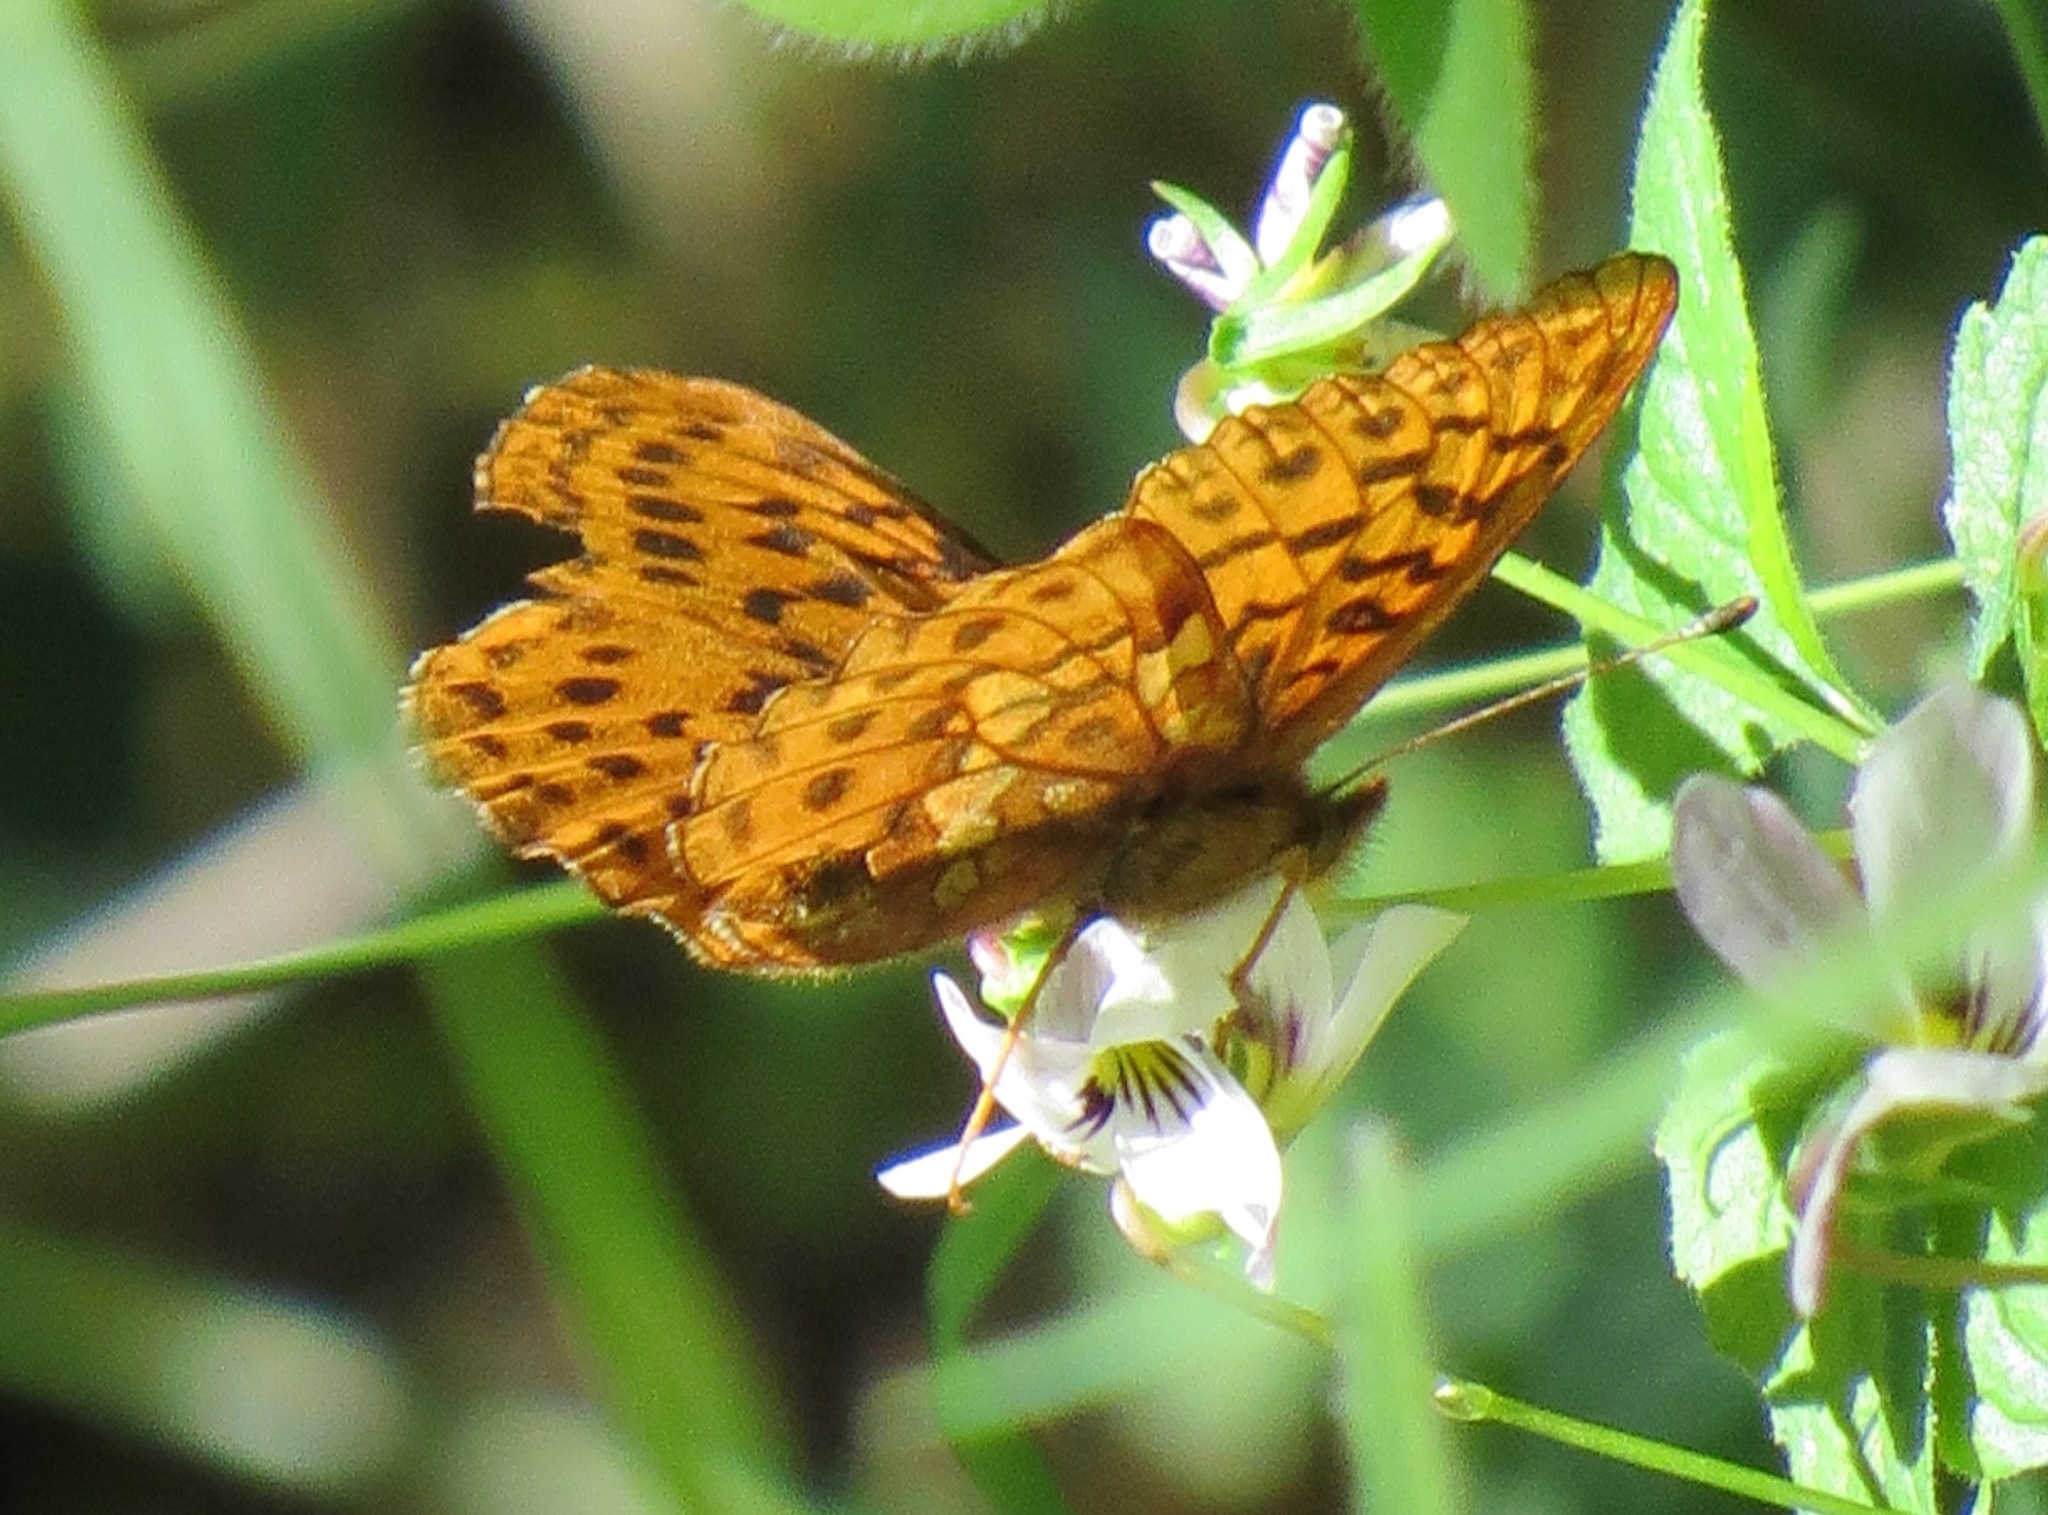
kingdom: Animalia
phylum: Arthropoda
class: Insecta
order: Lepidoptera
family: Nymphalidae
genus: Boloria
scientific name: Boloria epithore
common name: Pacific fritillary
